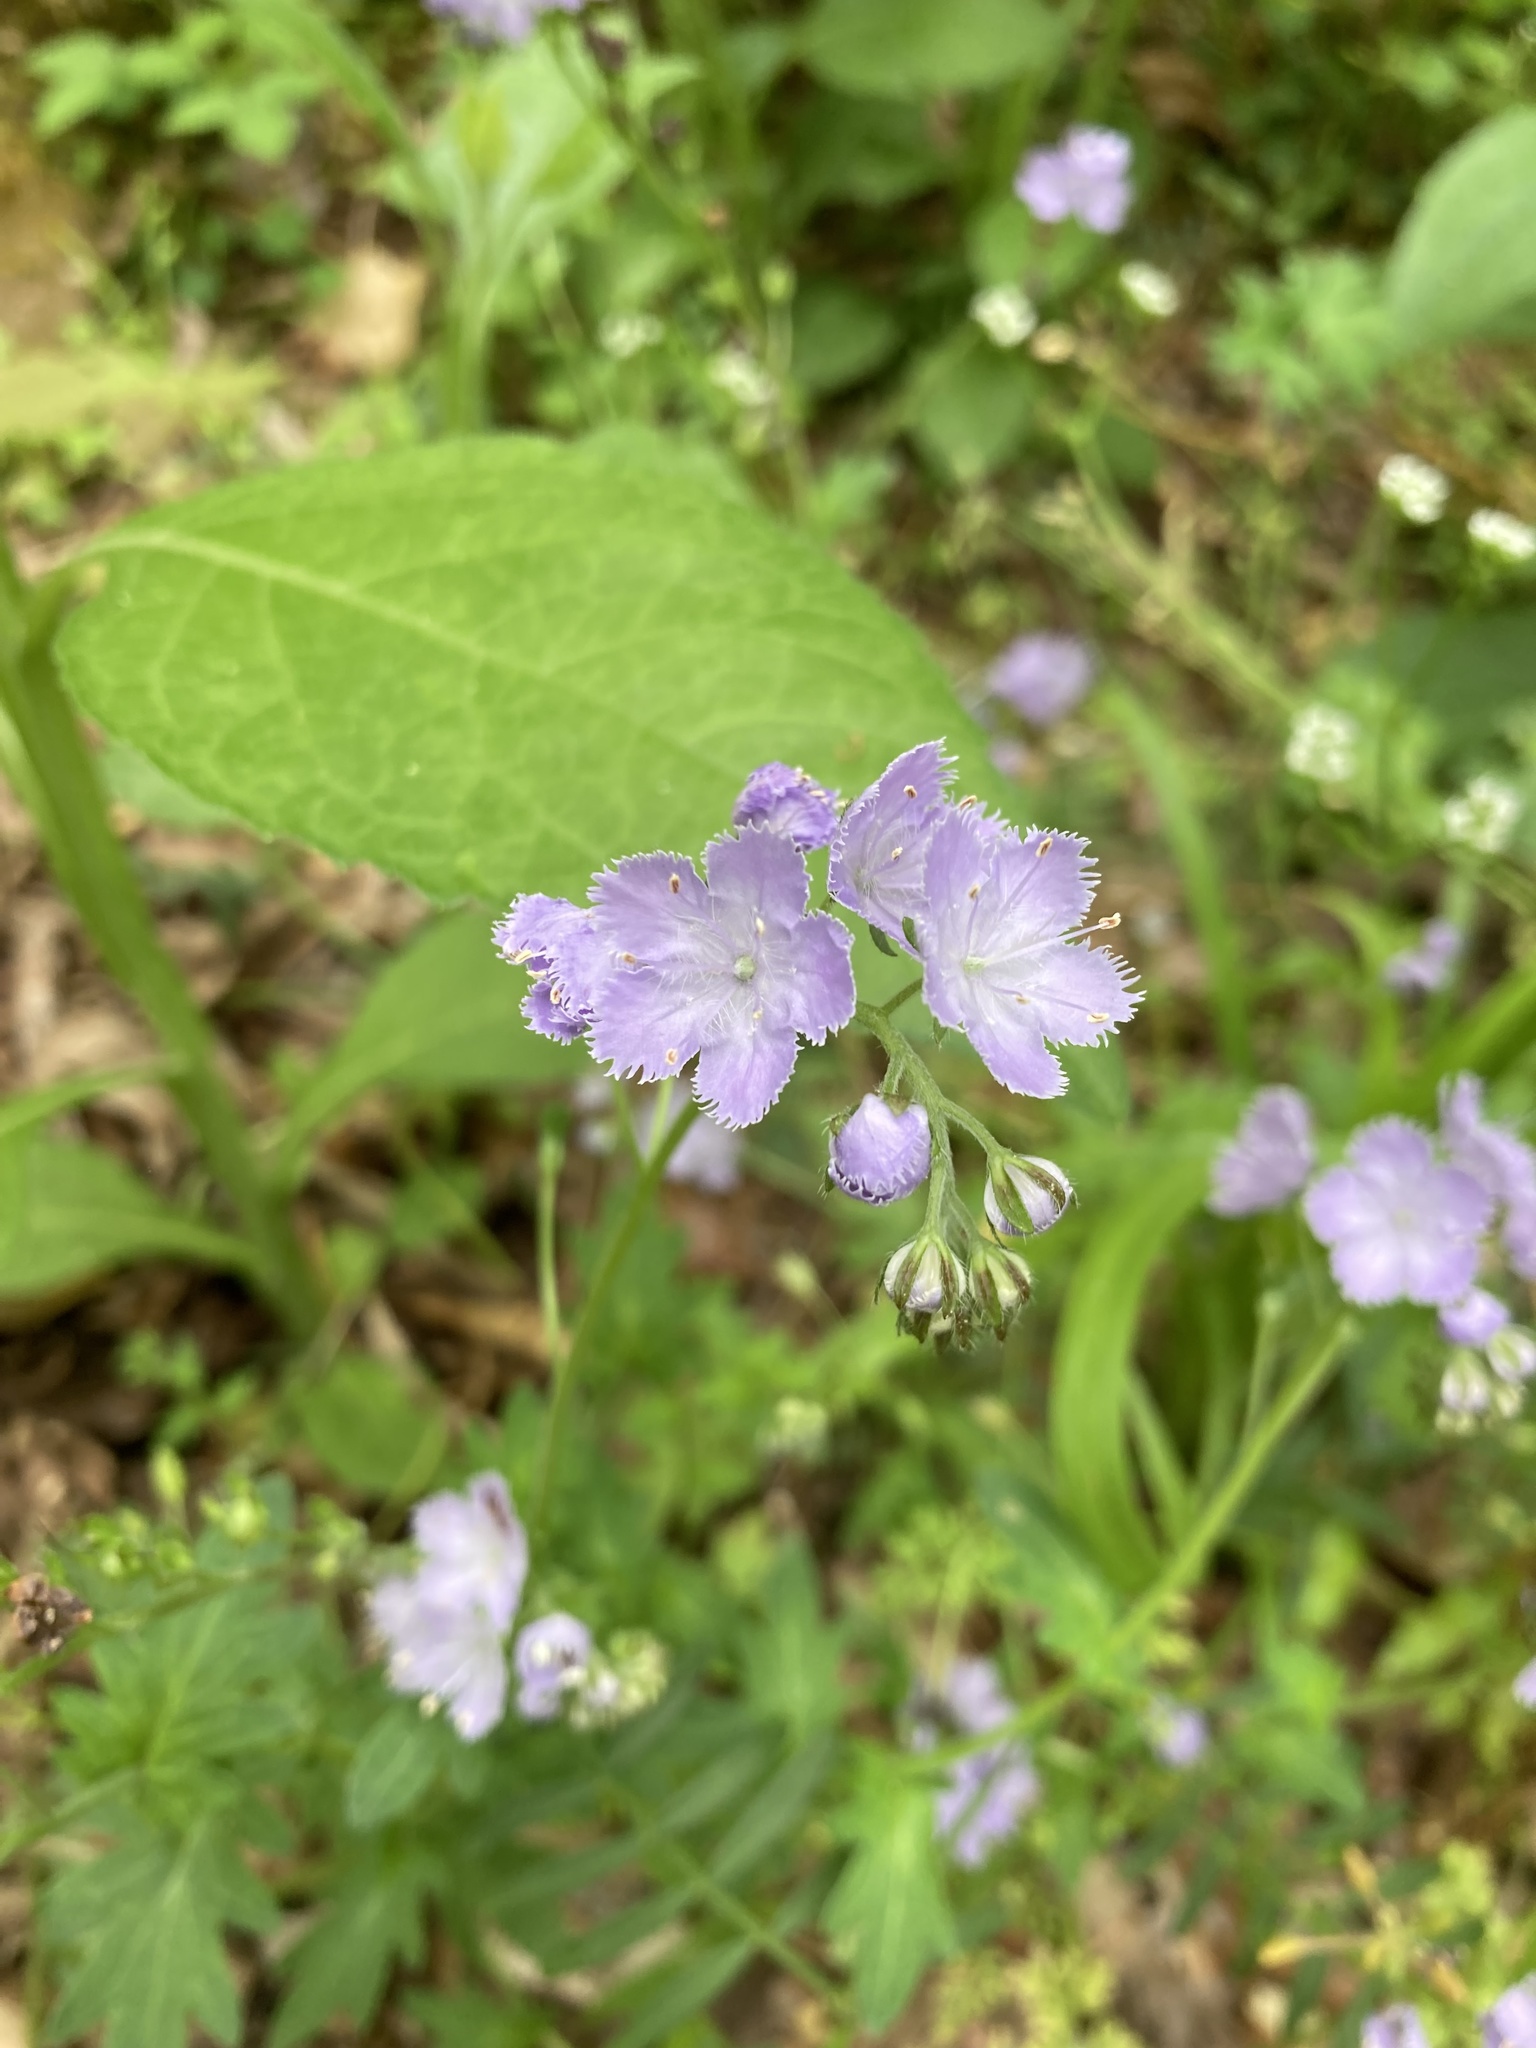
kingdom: Plantae
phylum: Tracheophyta
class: Magnoliopsida
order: Boraginales
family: Hydrophyllaceae
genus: Phacelia
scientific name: Phacelia purshii
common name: Miami-mist
